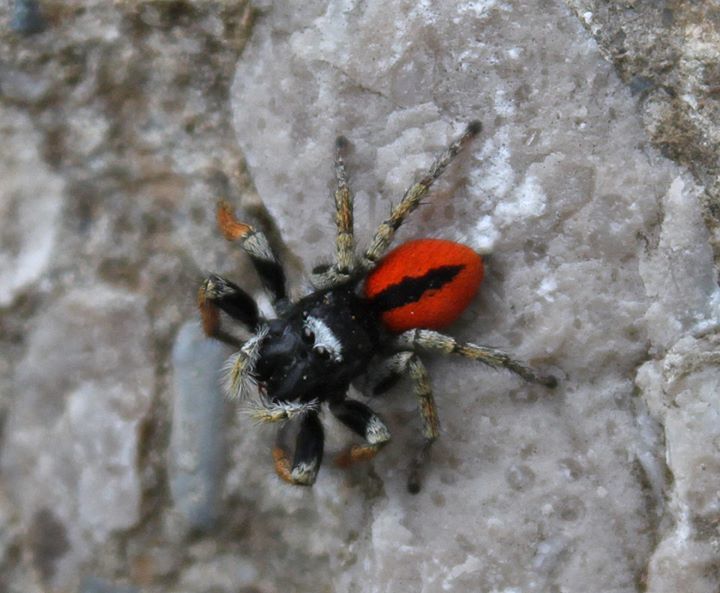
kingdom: Animalia
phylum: Arthropoda
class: Arachnida
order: Araneae
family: Salticidae
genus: Philaeus
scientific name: Philaeus chrysops
